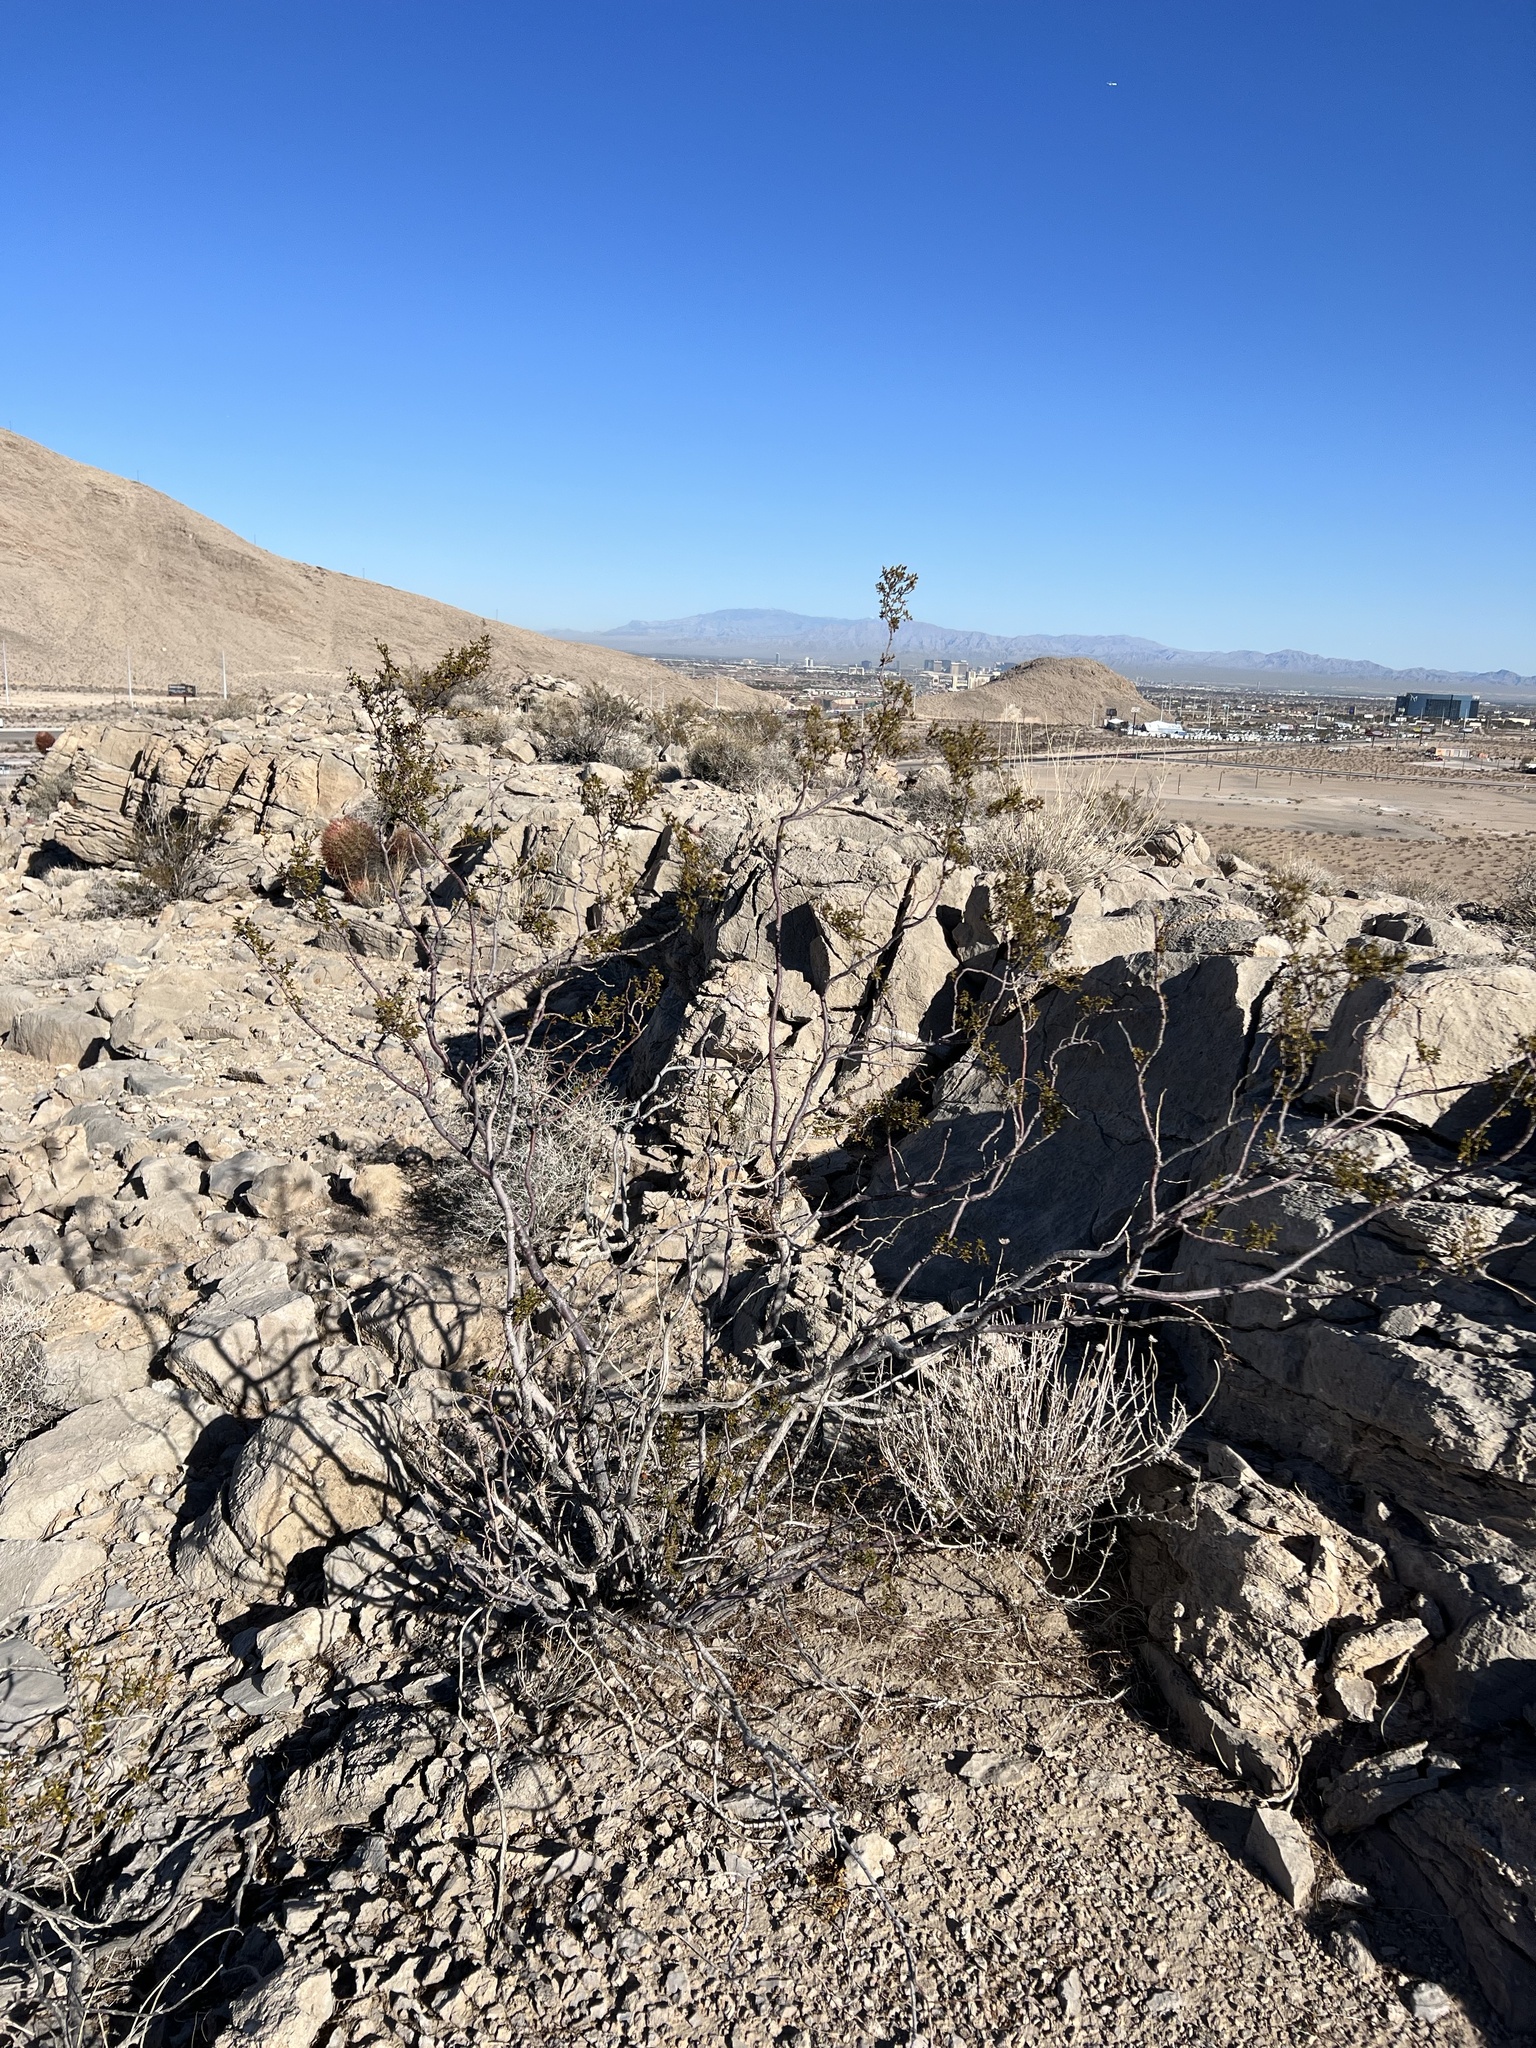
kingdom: Plantae
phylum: Tracheophyta
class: Magnoliopsida
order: Zygophyllales
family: Zygophyllaceae
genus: Larrea
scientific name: Larrea tridentata
